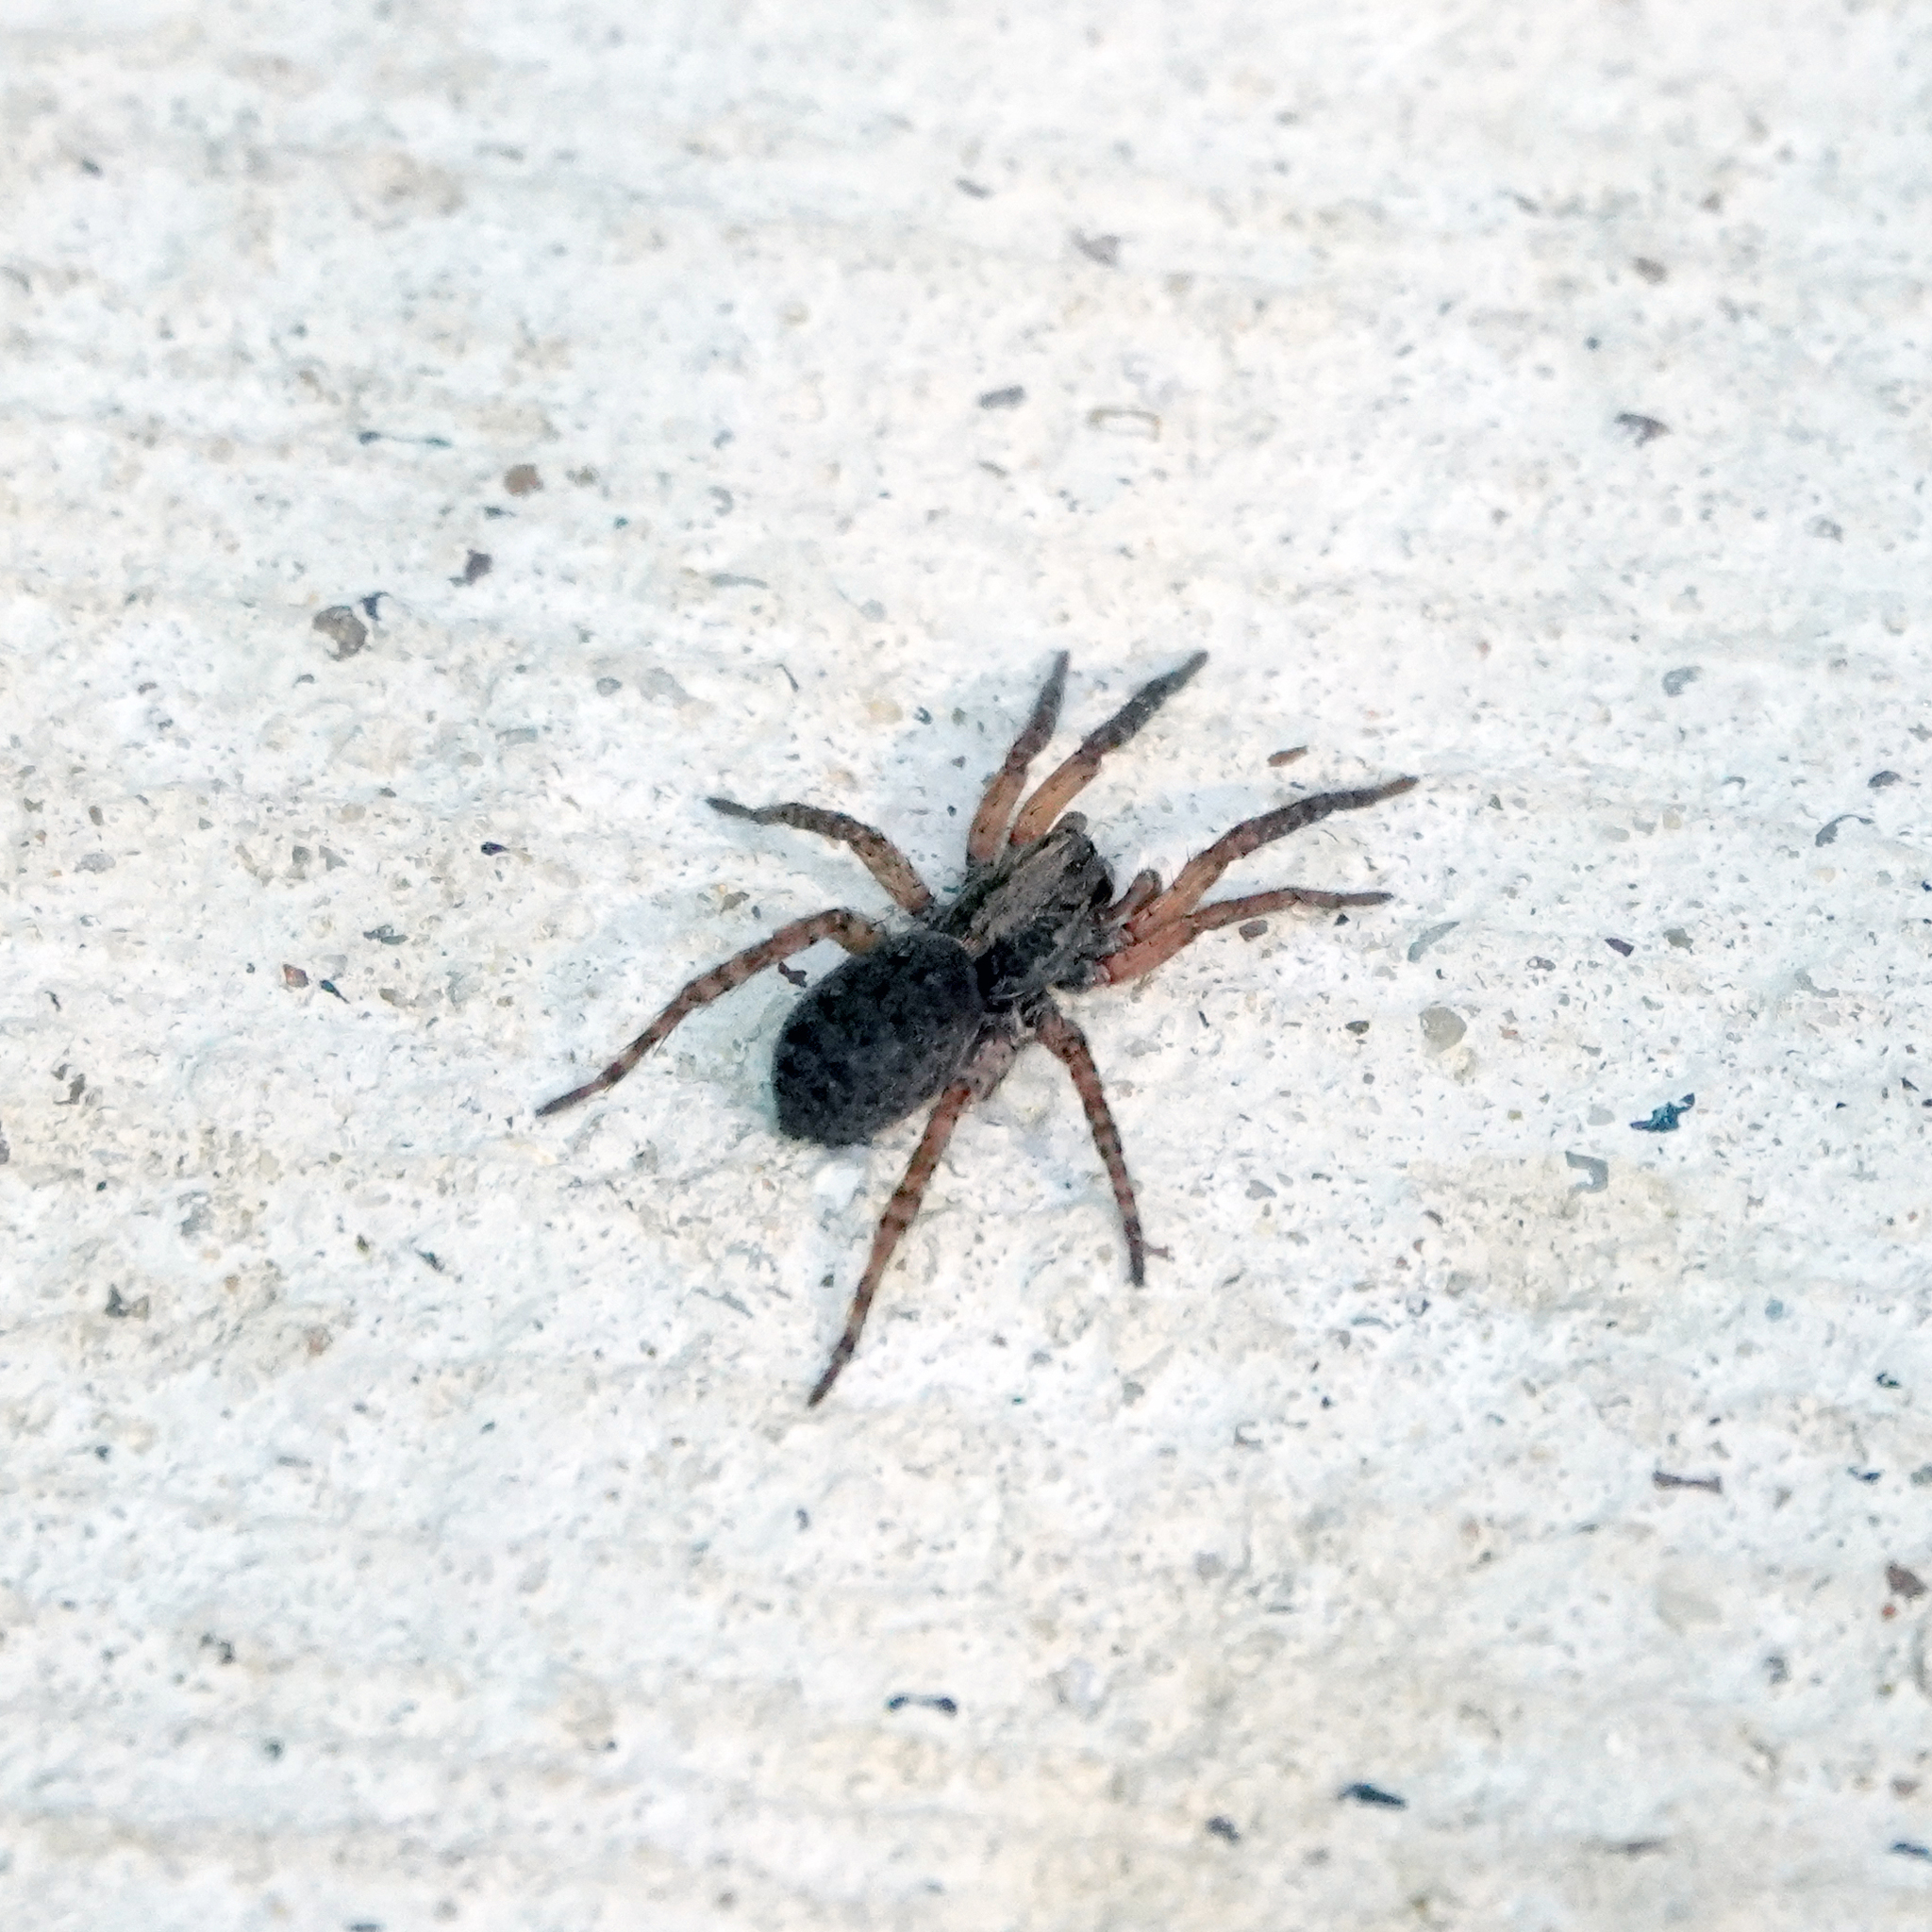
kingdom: Animalia
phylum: Arthropoda
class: Arachnida
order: Araneae
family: Lycosidae
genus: Trochosa
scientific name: Trochosa sepulchralis
